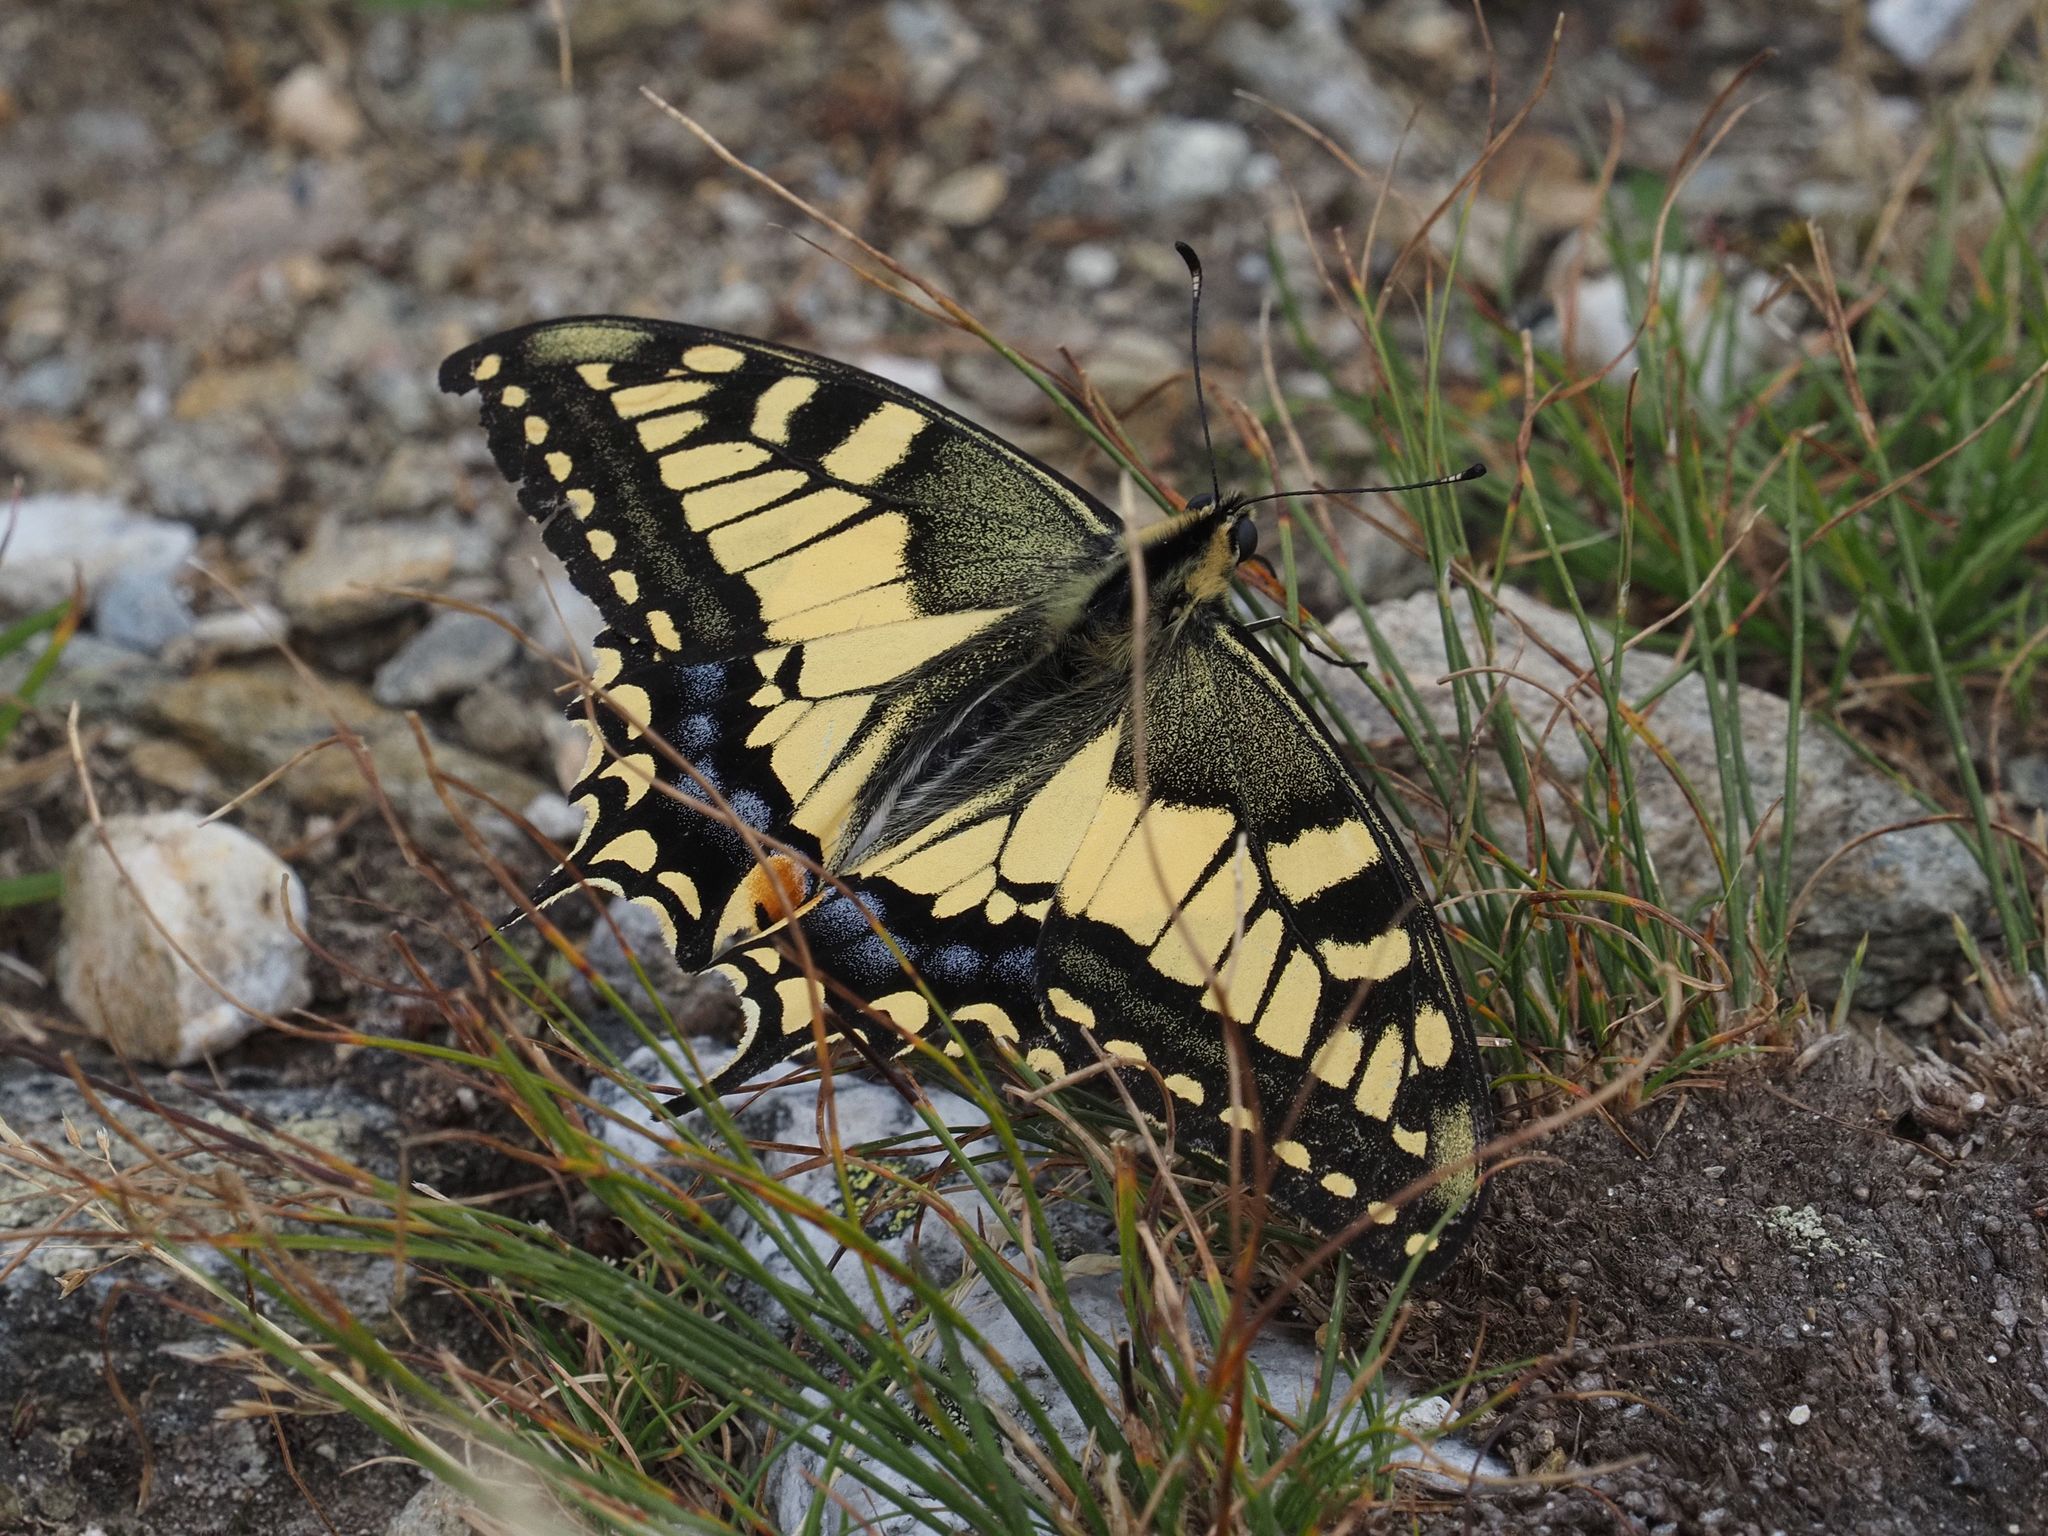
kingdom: Animalia
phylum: Arthropoda
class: Insecta
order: Lepidoptera
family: Papilionidae
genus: Papilio
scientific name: Papilio machaon
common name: Swallowtail
